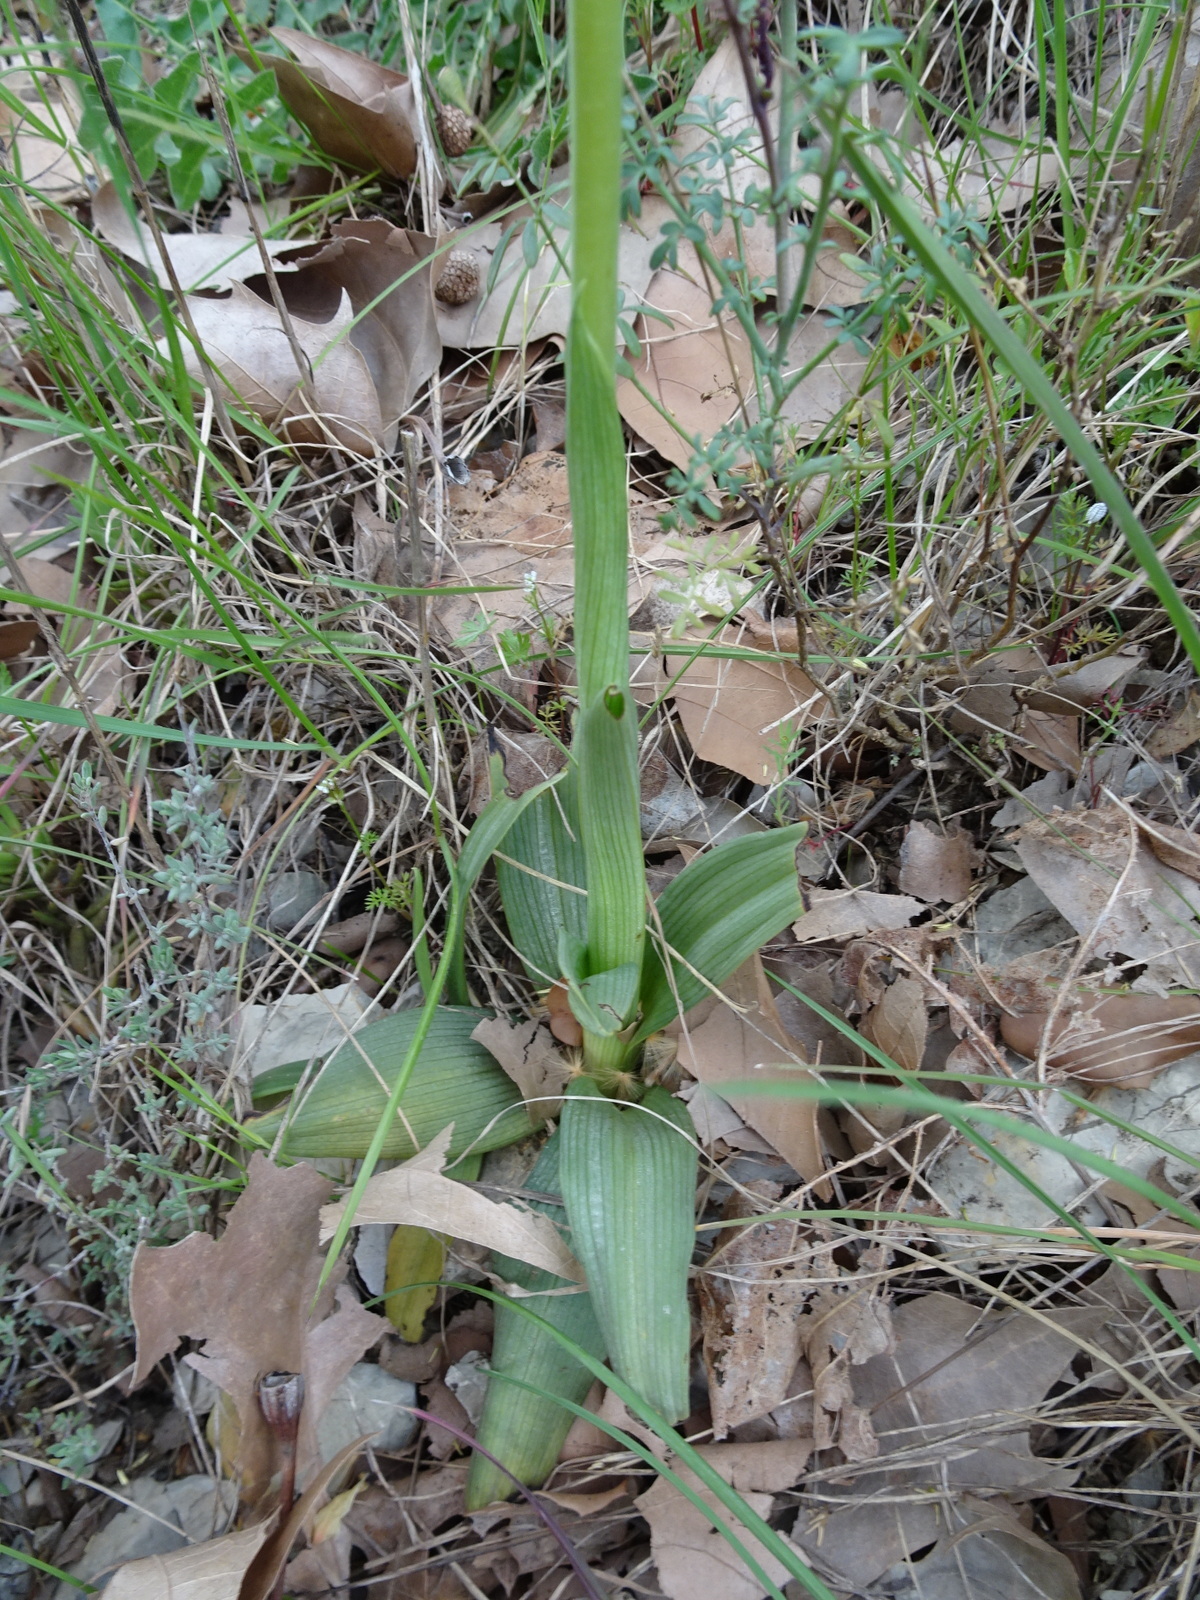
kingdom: Plantae
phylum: Tracheophyta
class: Liliopsida
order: Asparagales
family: Orchidaceae
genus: Ophrys
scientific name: Ophrys sphegodes
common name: Early spider-orchid
